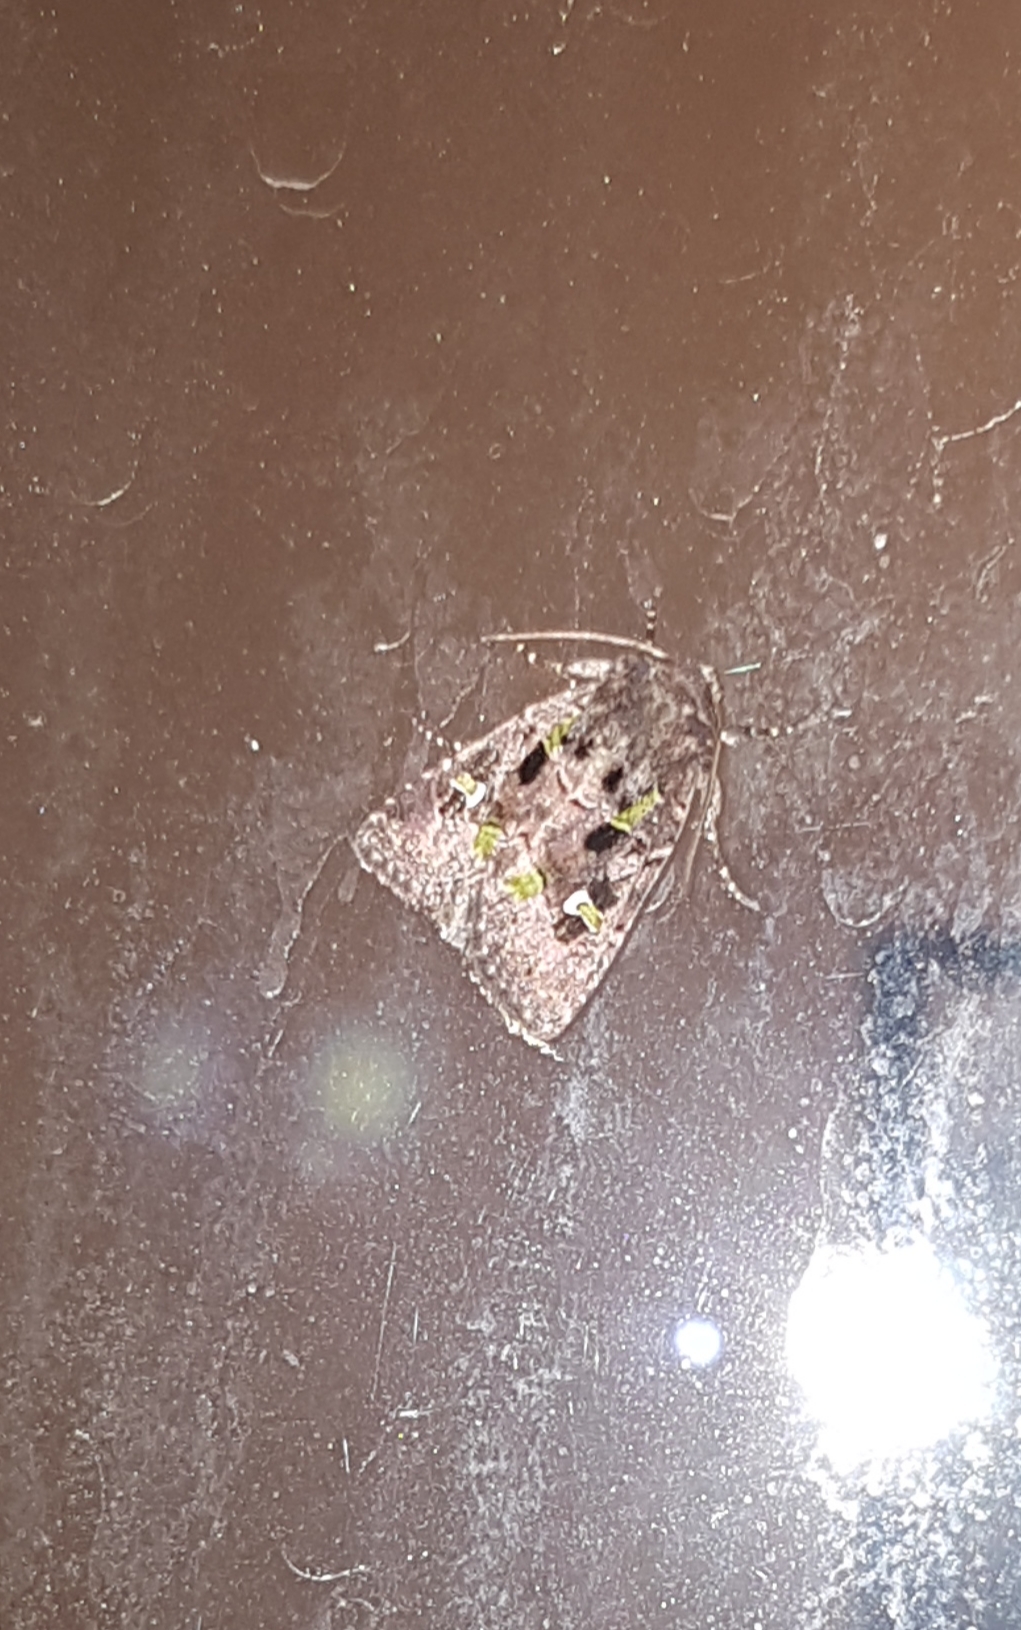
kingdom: Animalia
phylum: Arthropoda
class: Insecta
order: Lepidoptera
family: Noctuidae
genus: Lacinipolia
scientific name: Lacinipolia renigera
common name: Kidney-spotted minor
